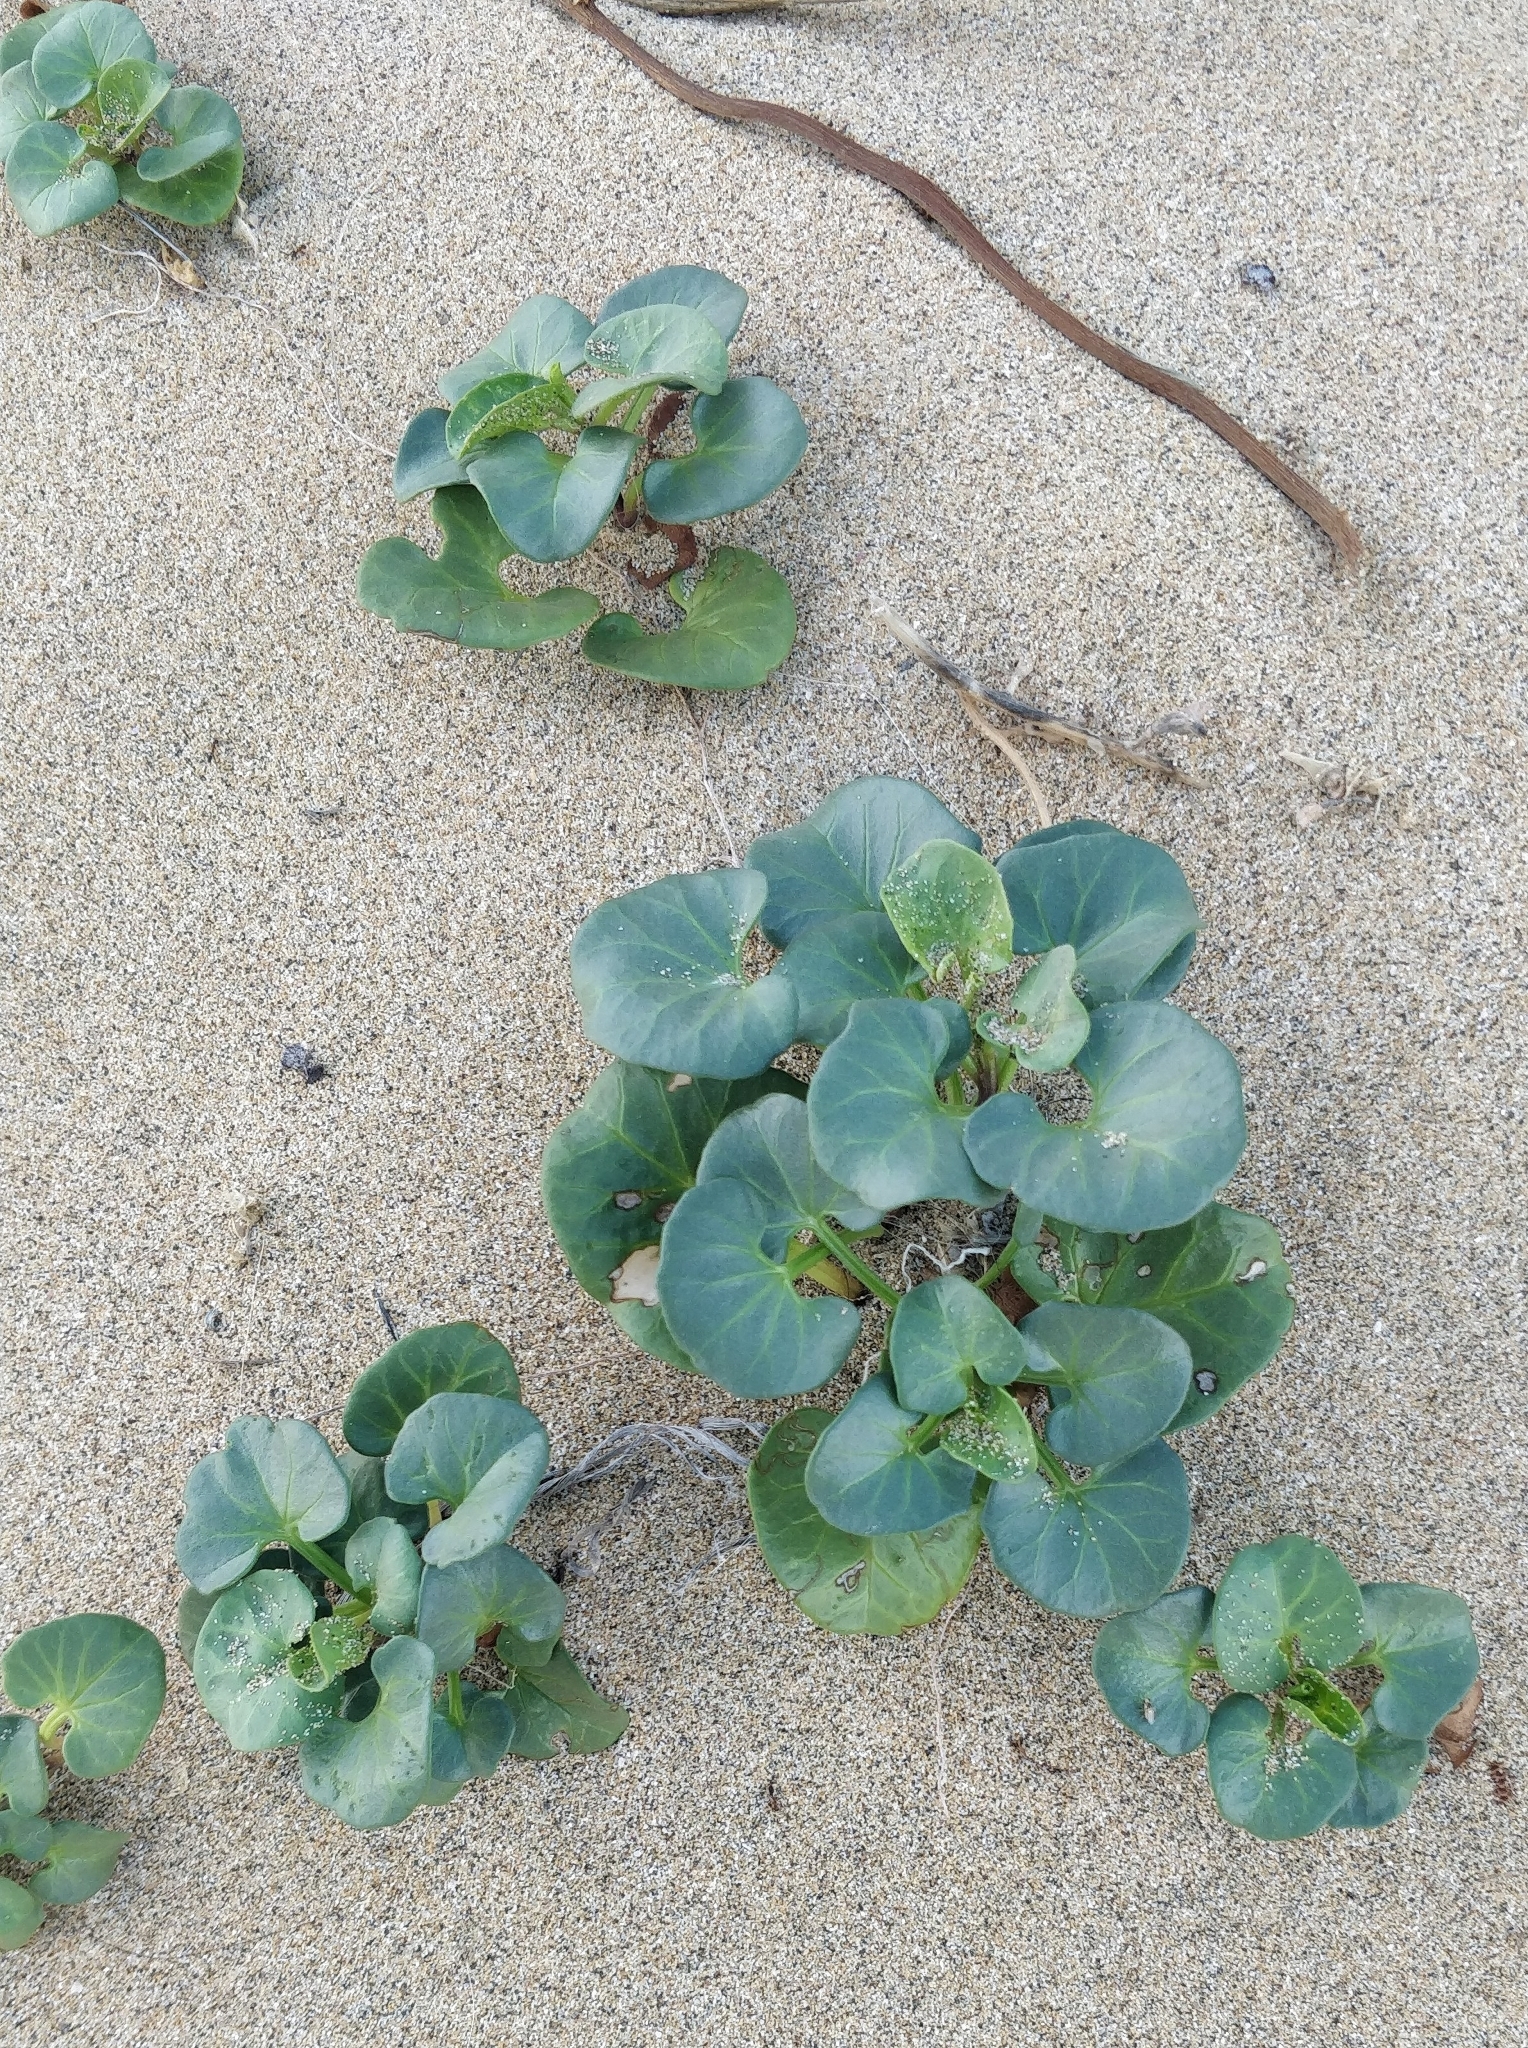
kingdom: Plantae
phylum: Tracheophyta
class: Magnoliopsida
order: Solanales
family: Convolvulaceae
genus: Calystegia
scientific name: Calystegia soldanella
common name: Sea bindweed
